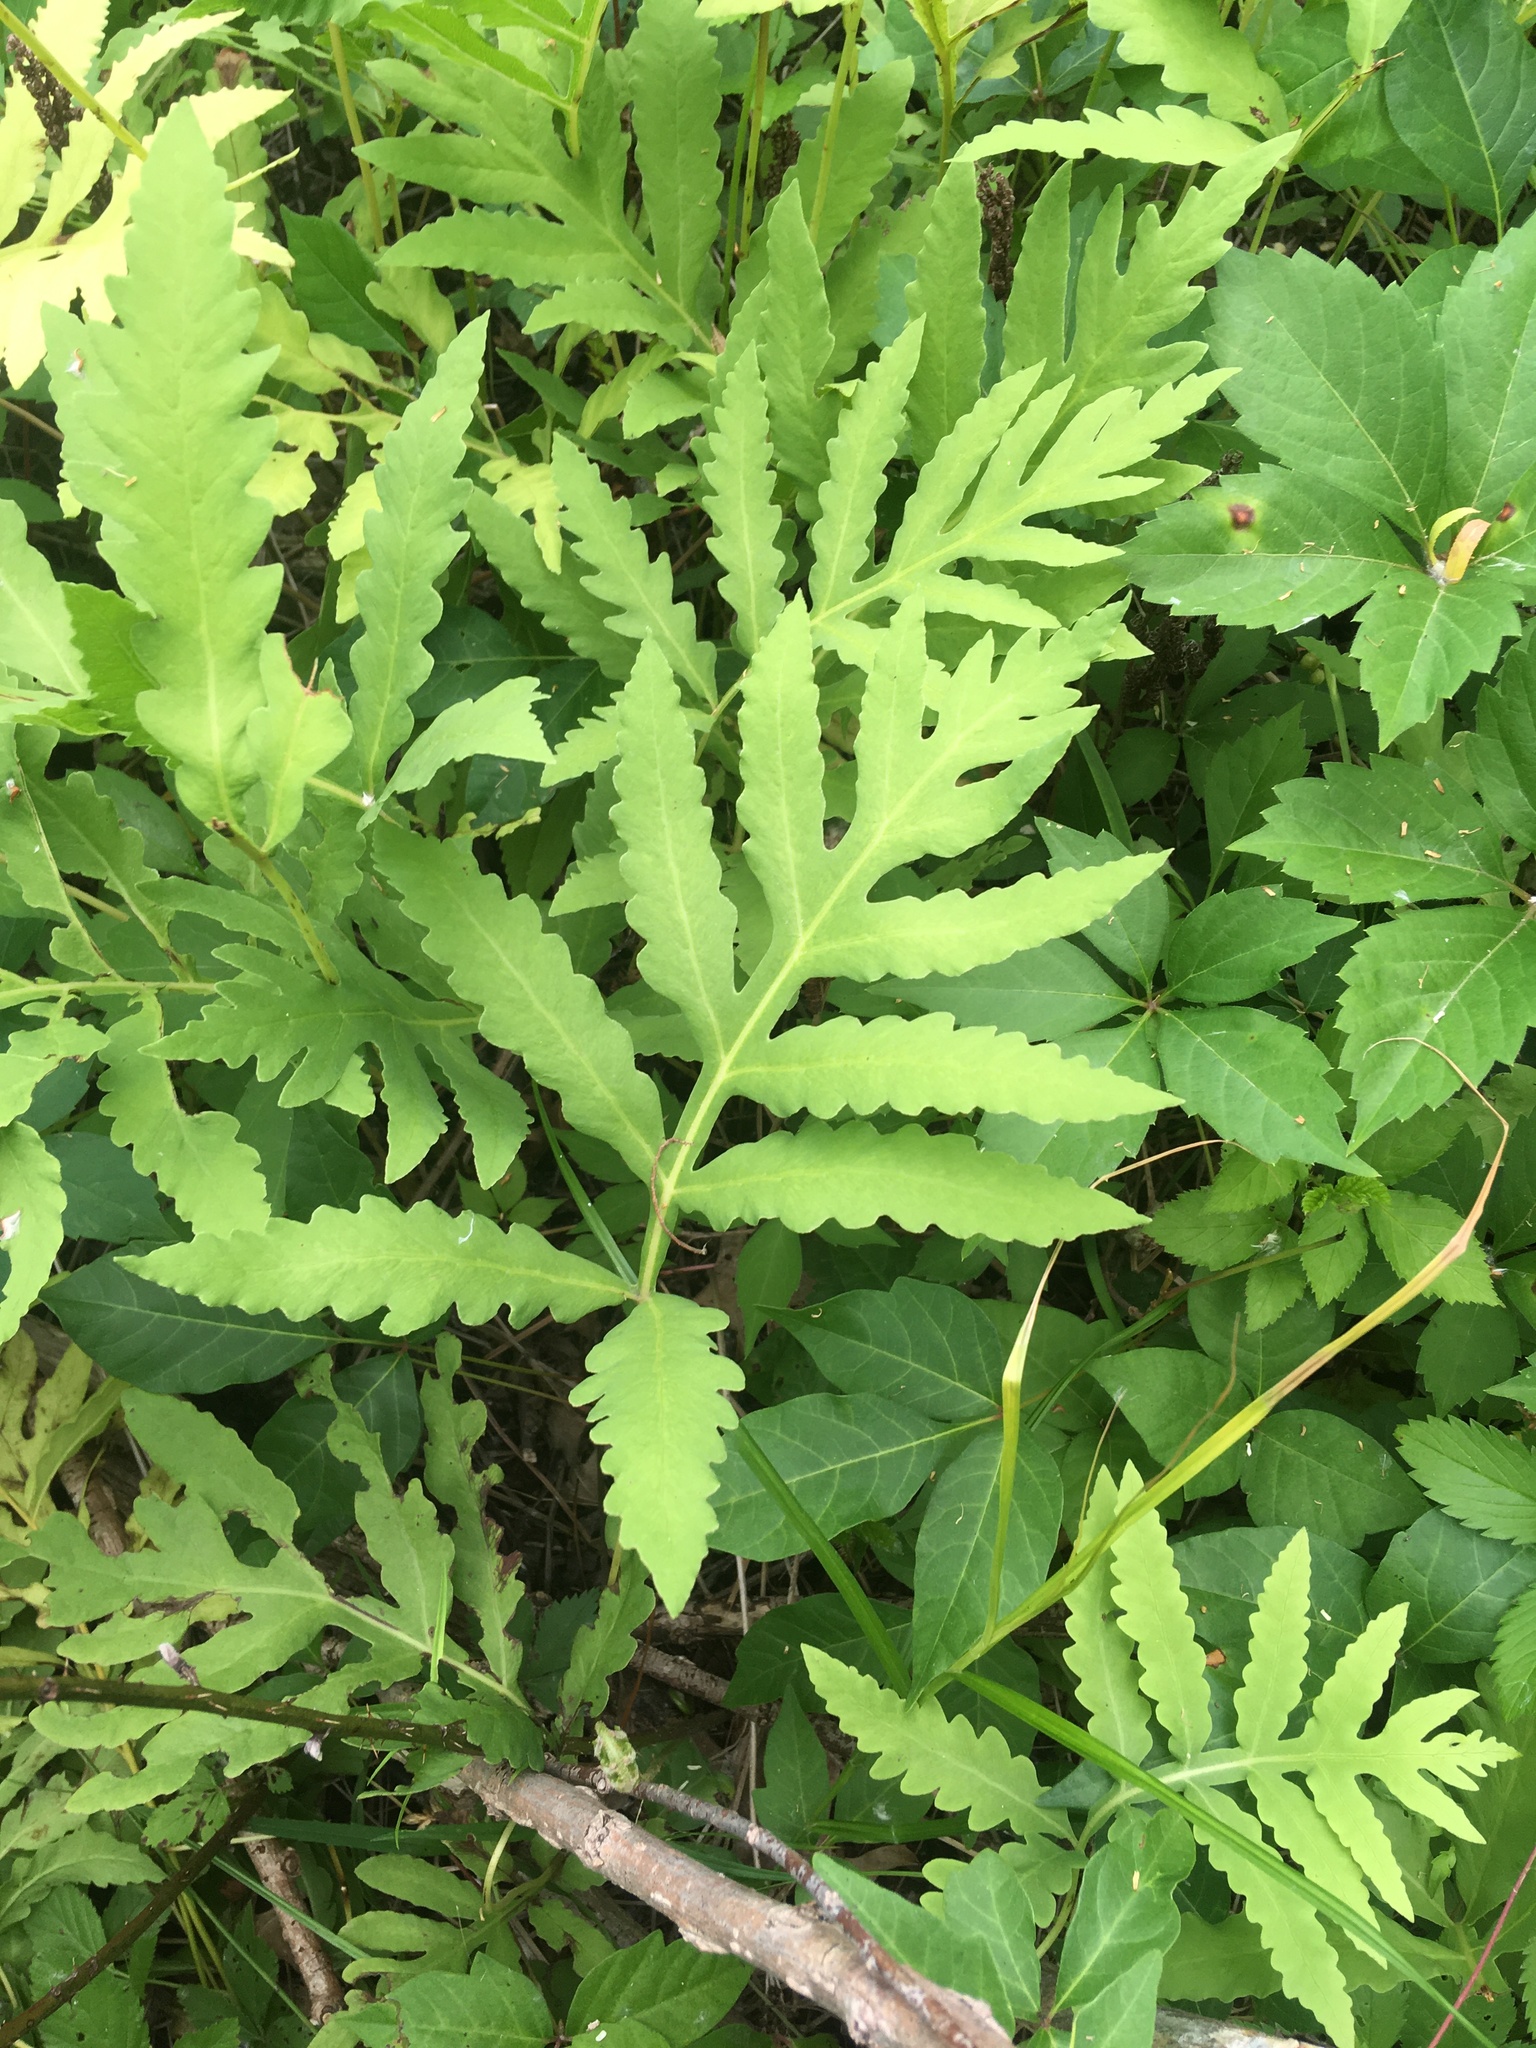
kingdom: Plantae
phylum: Tracheophyta
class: Polypodiopsida
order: Polypodiales
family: Onocleaceae
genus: Onoclea
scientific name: Onoclea sensibilis
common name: Sensitive fern
